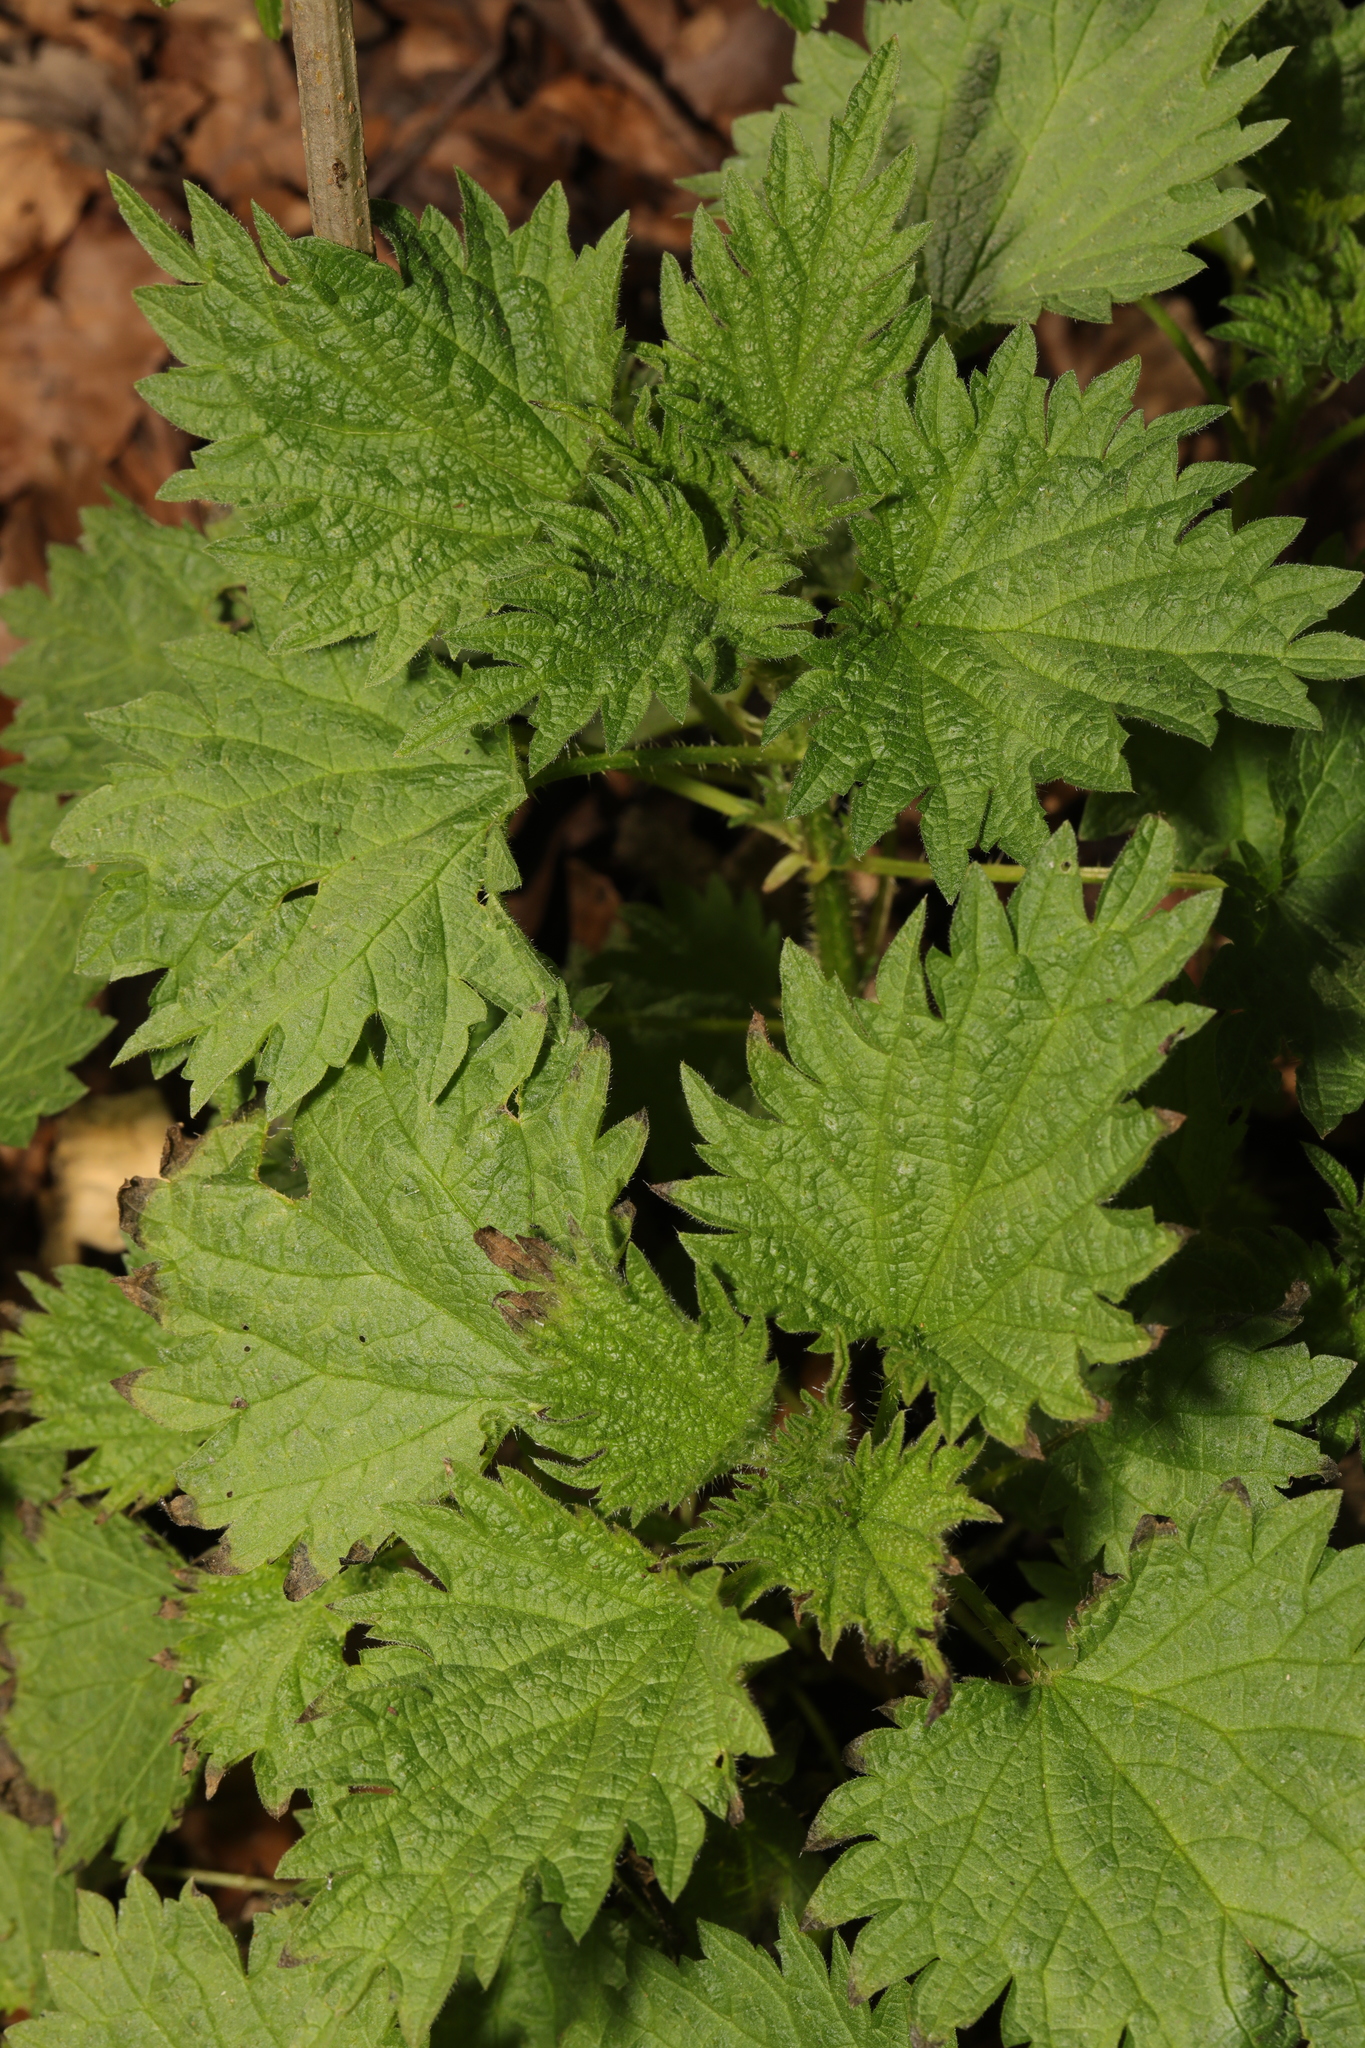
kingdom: Plantae
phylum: Tracheophyta
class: Magnoliopsida
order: Rosales
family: Urticaceae
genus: Urtica
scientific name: Urtica dioica
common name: Common nettle
